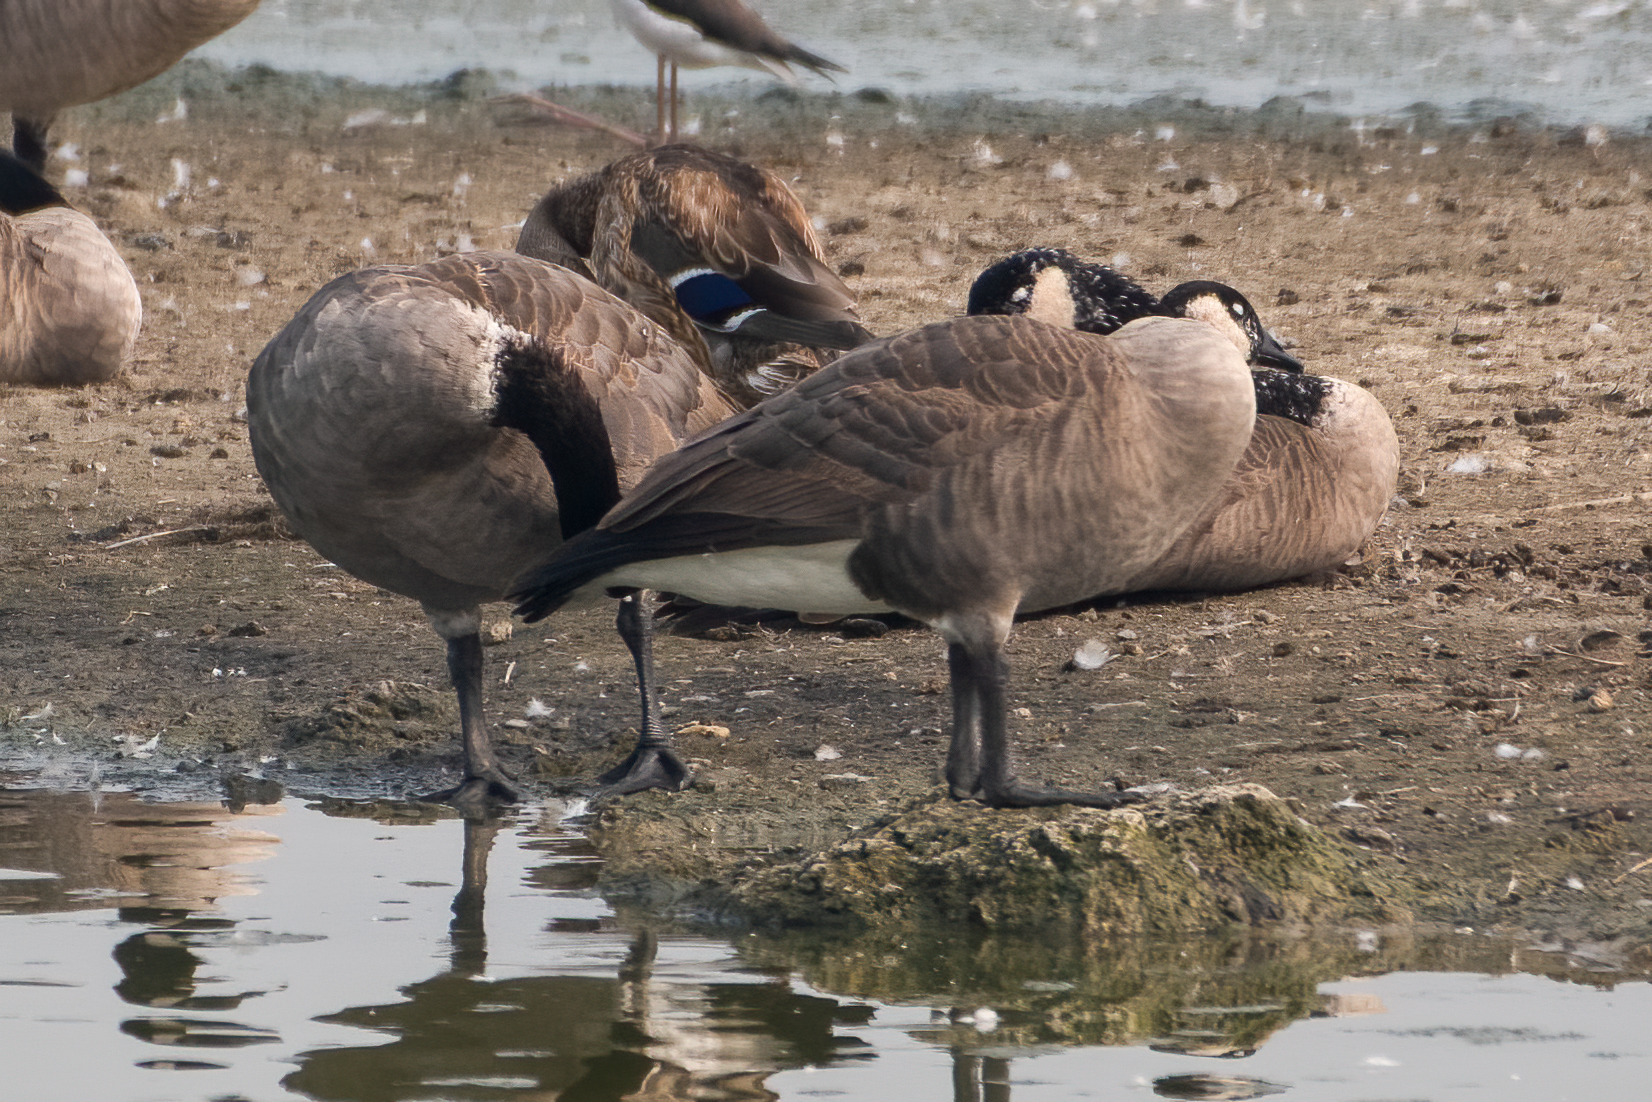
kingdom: Animalia
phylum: Chordata
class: Aves
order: Anseriformes
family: Anatidae
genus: Branta
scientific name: Branta canadensis
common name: Canada goose
